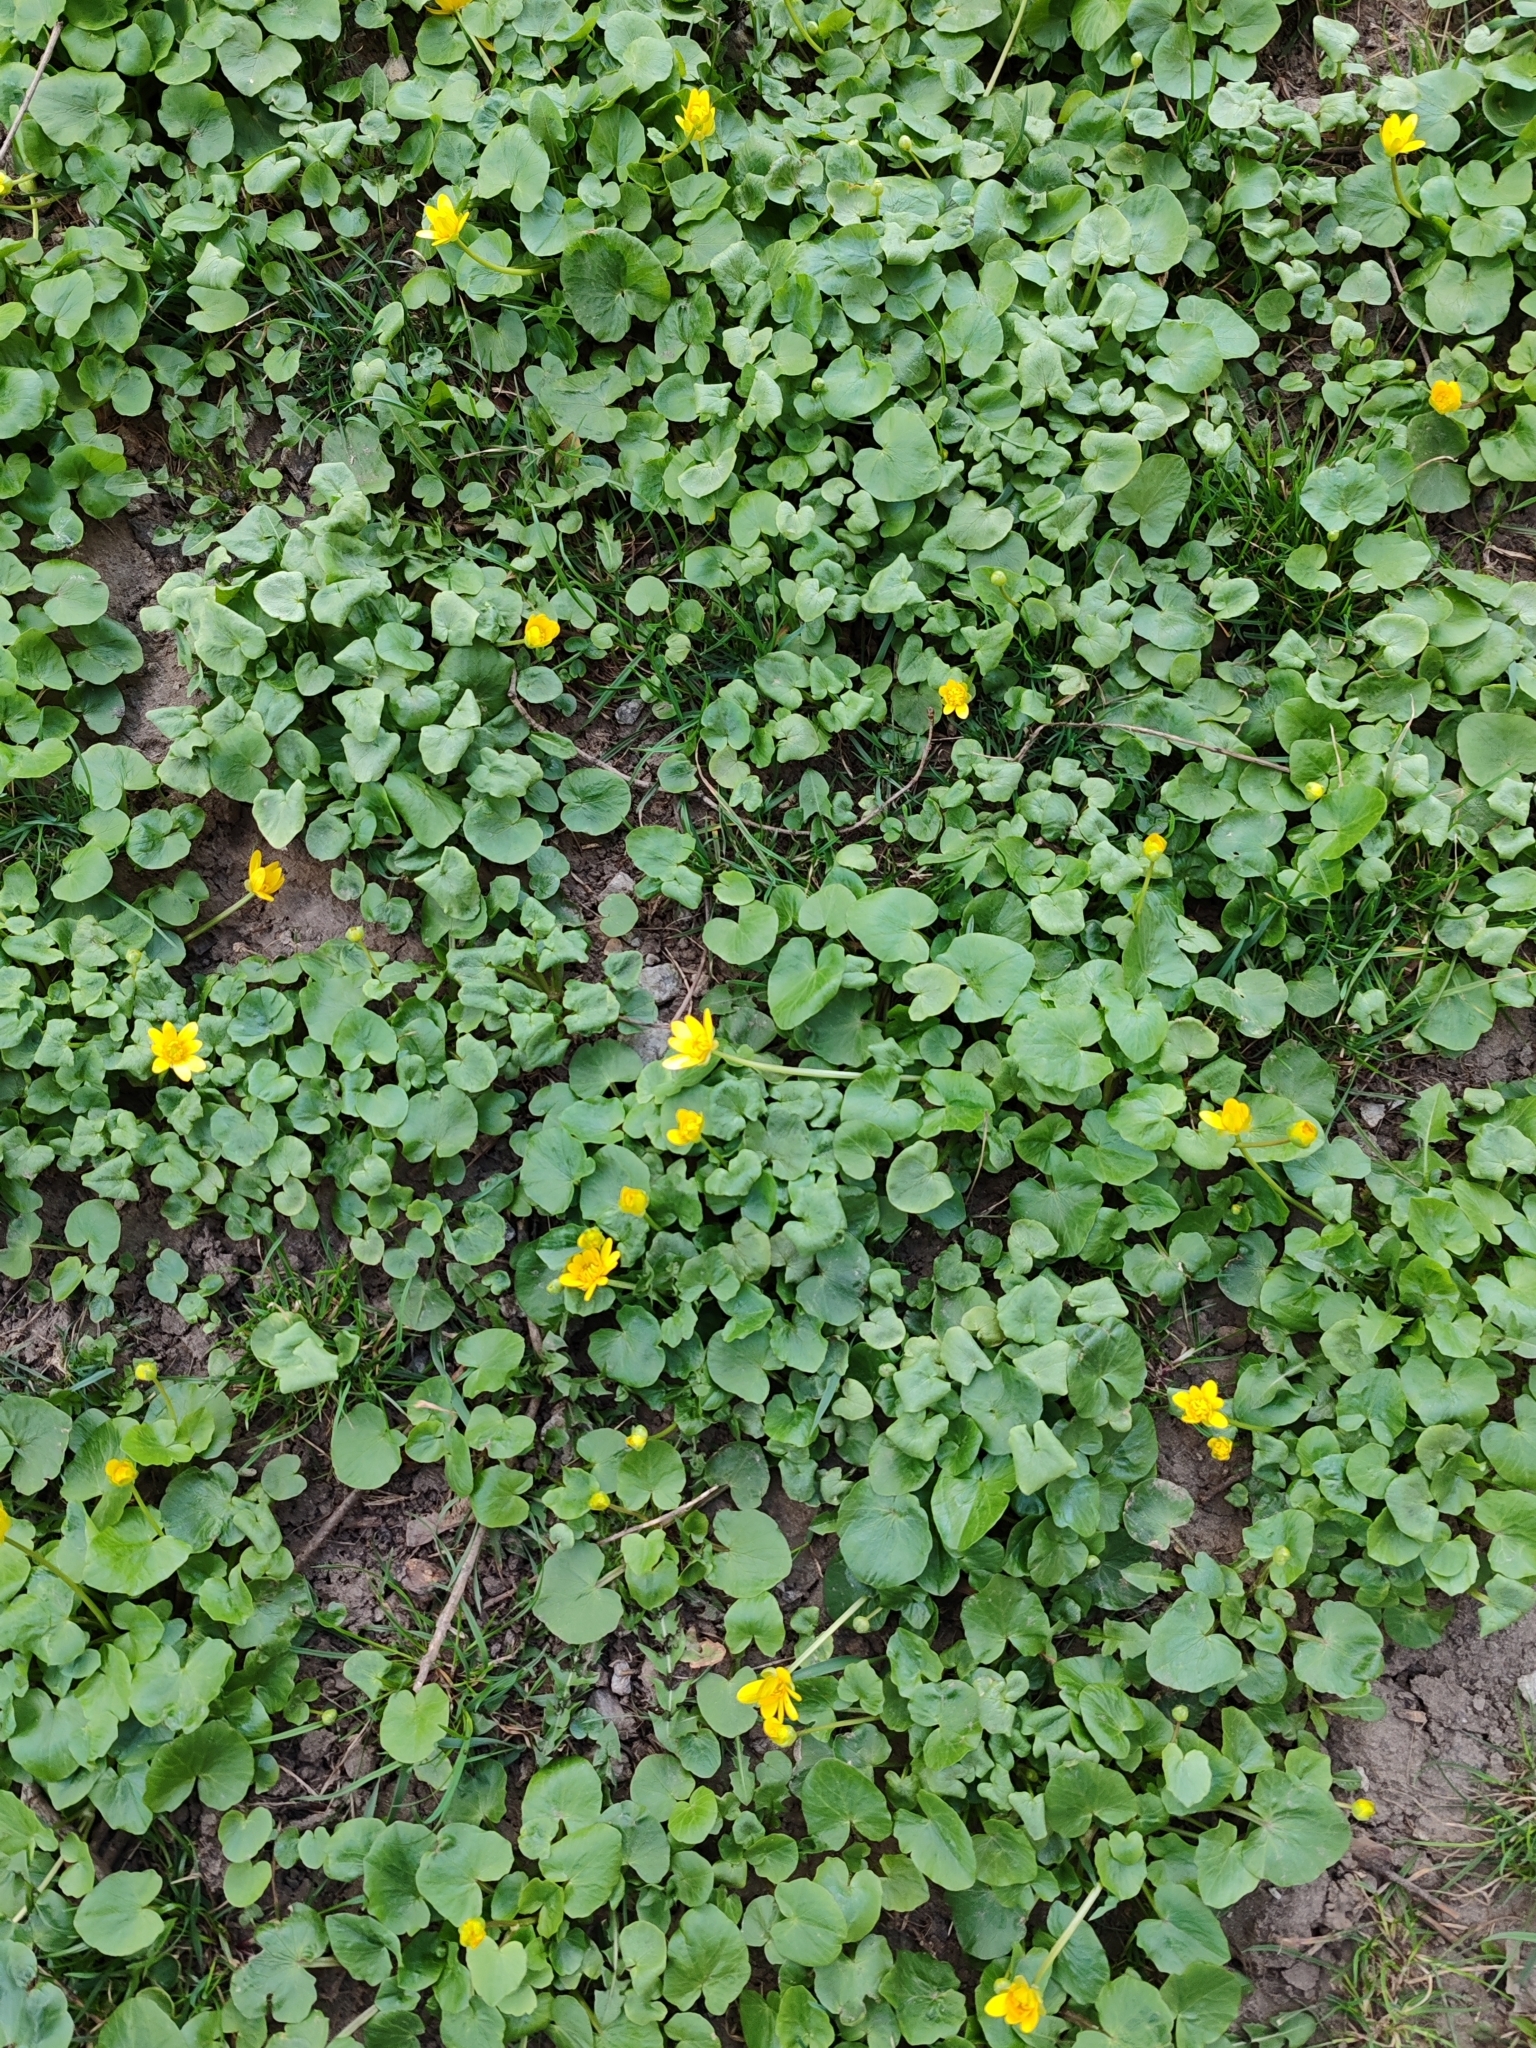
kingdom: Plantae
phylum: Tracheophyta
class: Magnoliopsida
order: Ranunculales
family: Ranunculaceae
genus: Ficaria
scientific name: Ficaria verna
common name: Lesser celandine
